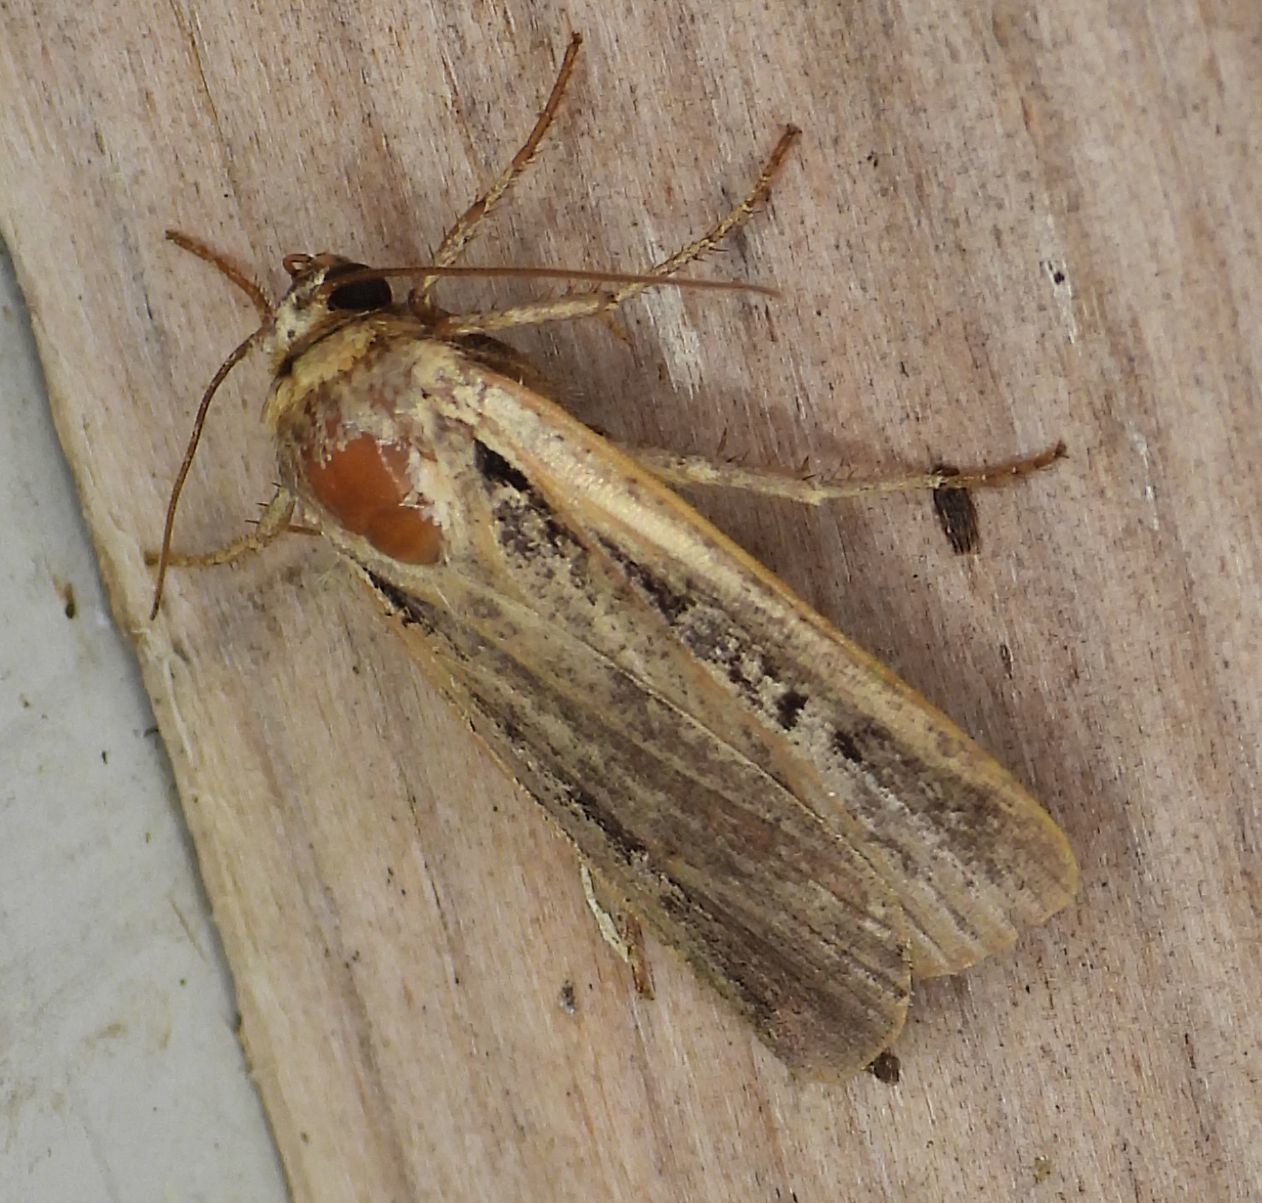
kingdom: Animalia
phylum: Arthropoda
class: Insecta
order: Lepidoptera
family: Noctuidae
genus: Ochropleura
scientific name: Ochropleura implecta
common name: Flame-shouldered dart
